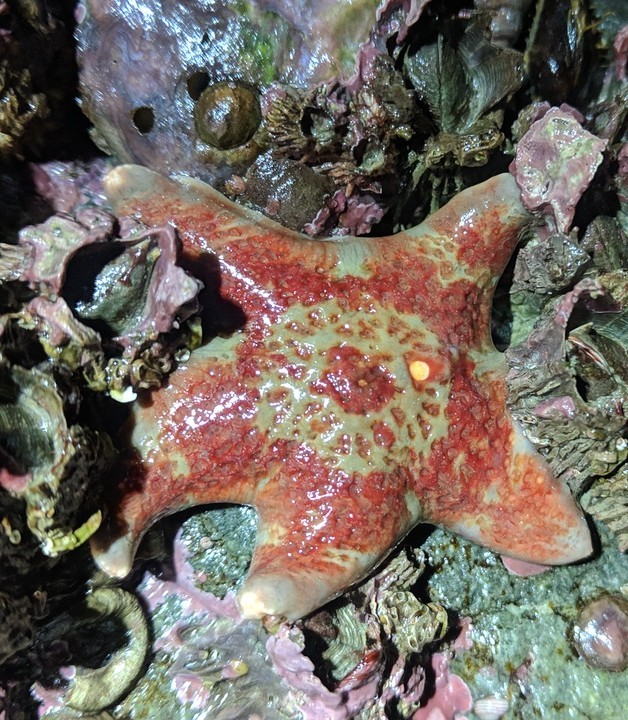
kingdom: Animalia
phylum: Echinodermata
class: Asteroidea
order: Valvatida
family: Asteropseidae
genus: Dermasterias
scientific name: Dermasterias imbricata
